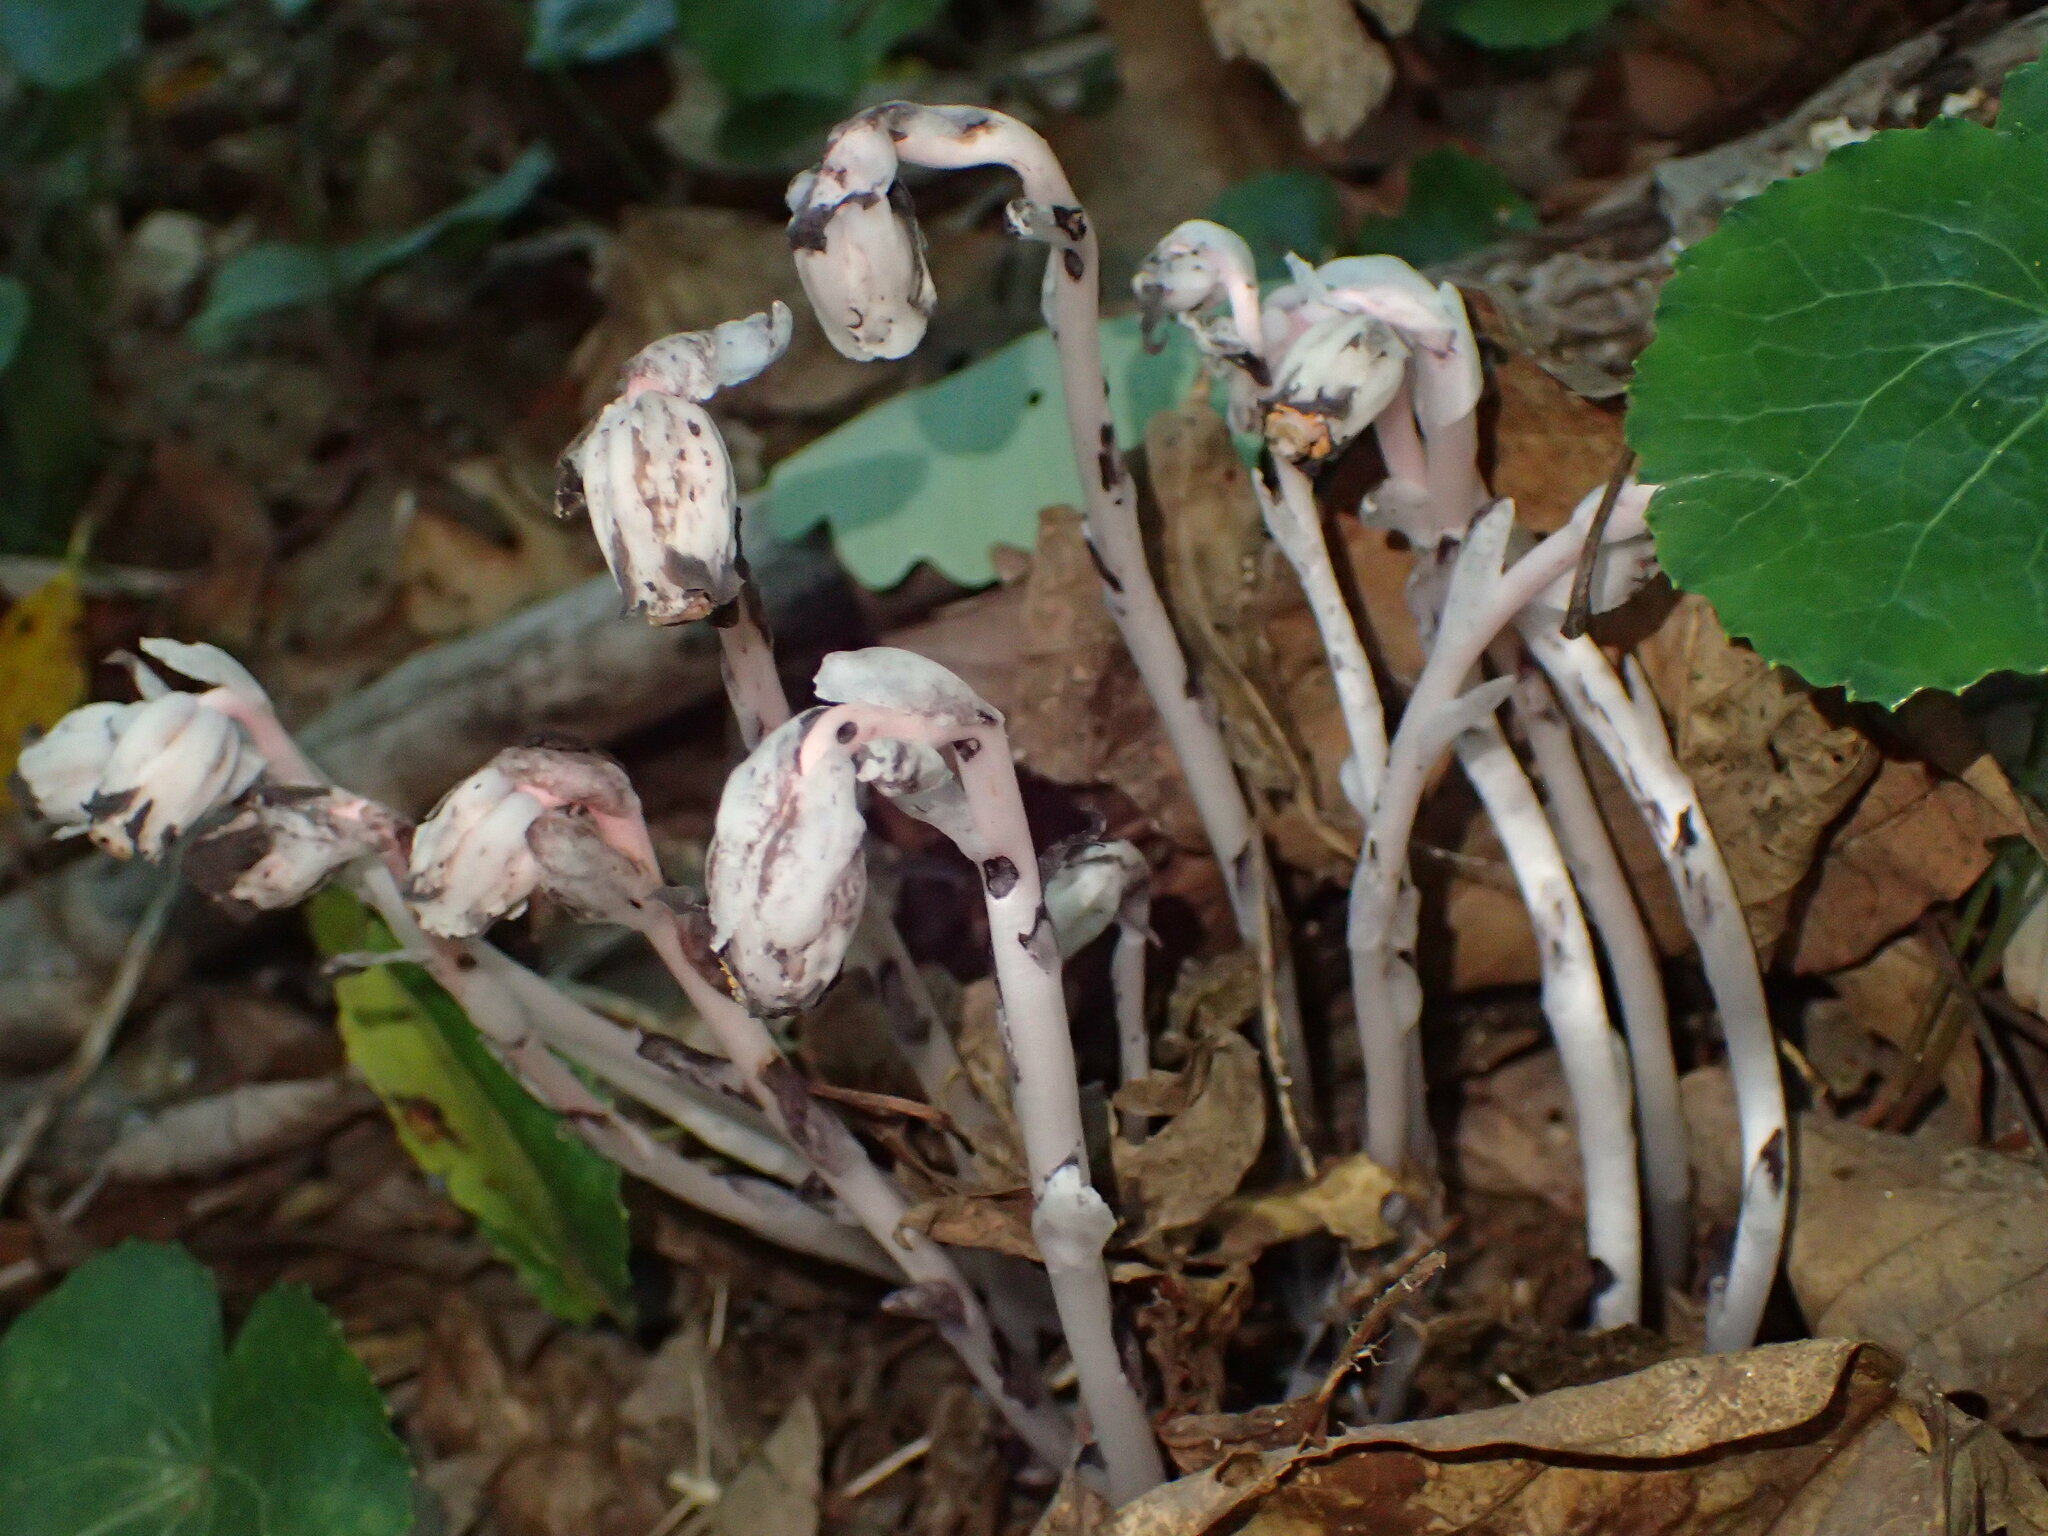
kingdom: Plantae
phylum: Tracheophyta
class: Magnoliopsida
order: Ericales
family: Ericaceae
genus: Monotropa
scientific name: Monotropa uniflora
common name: Convulsion root
